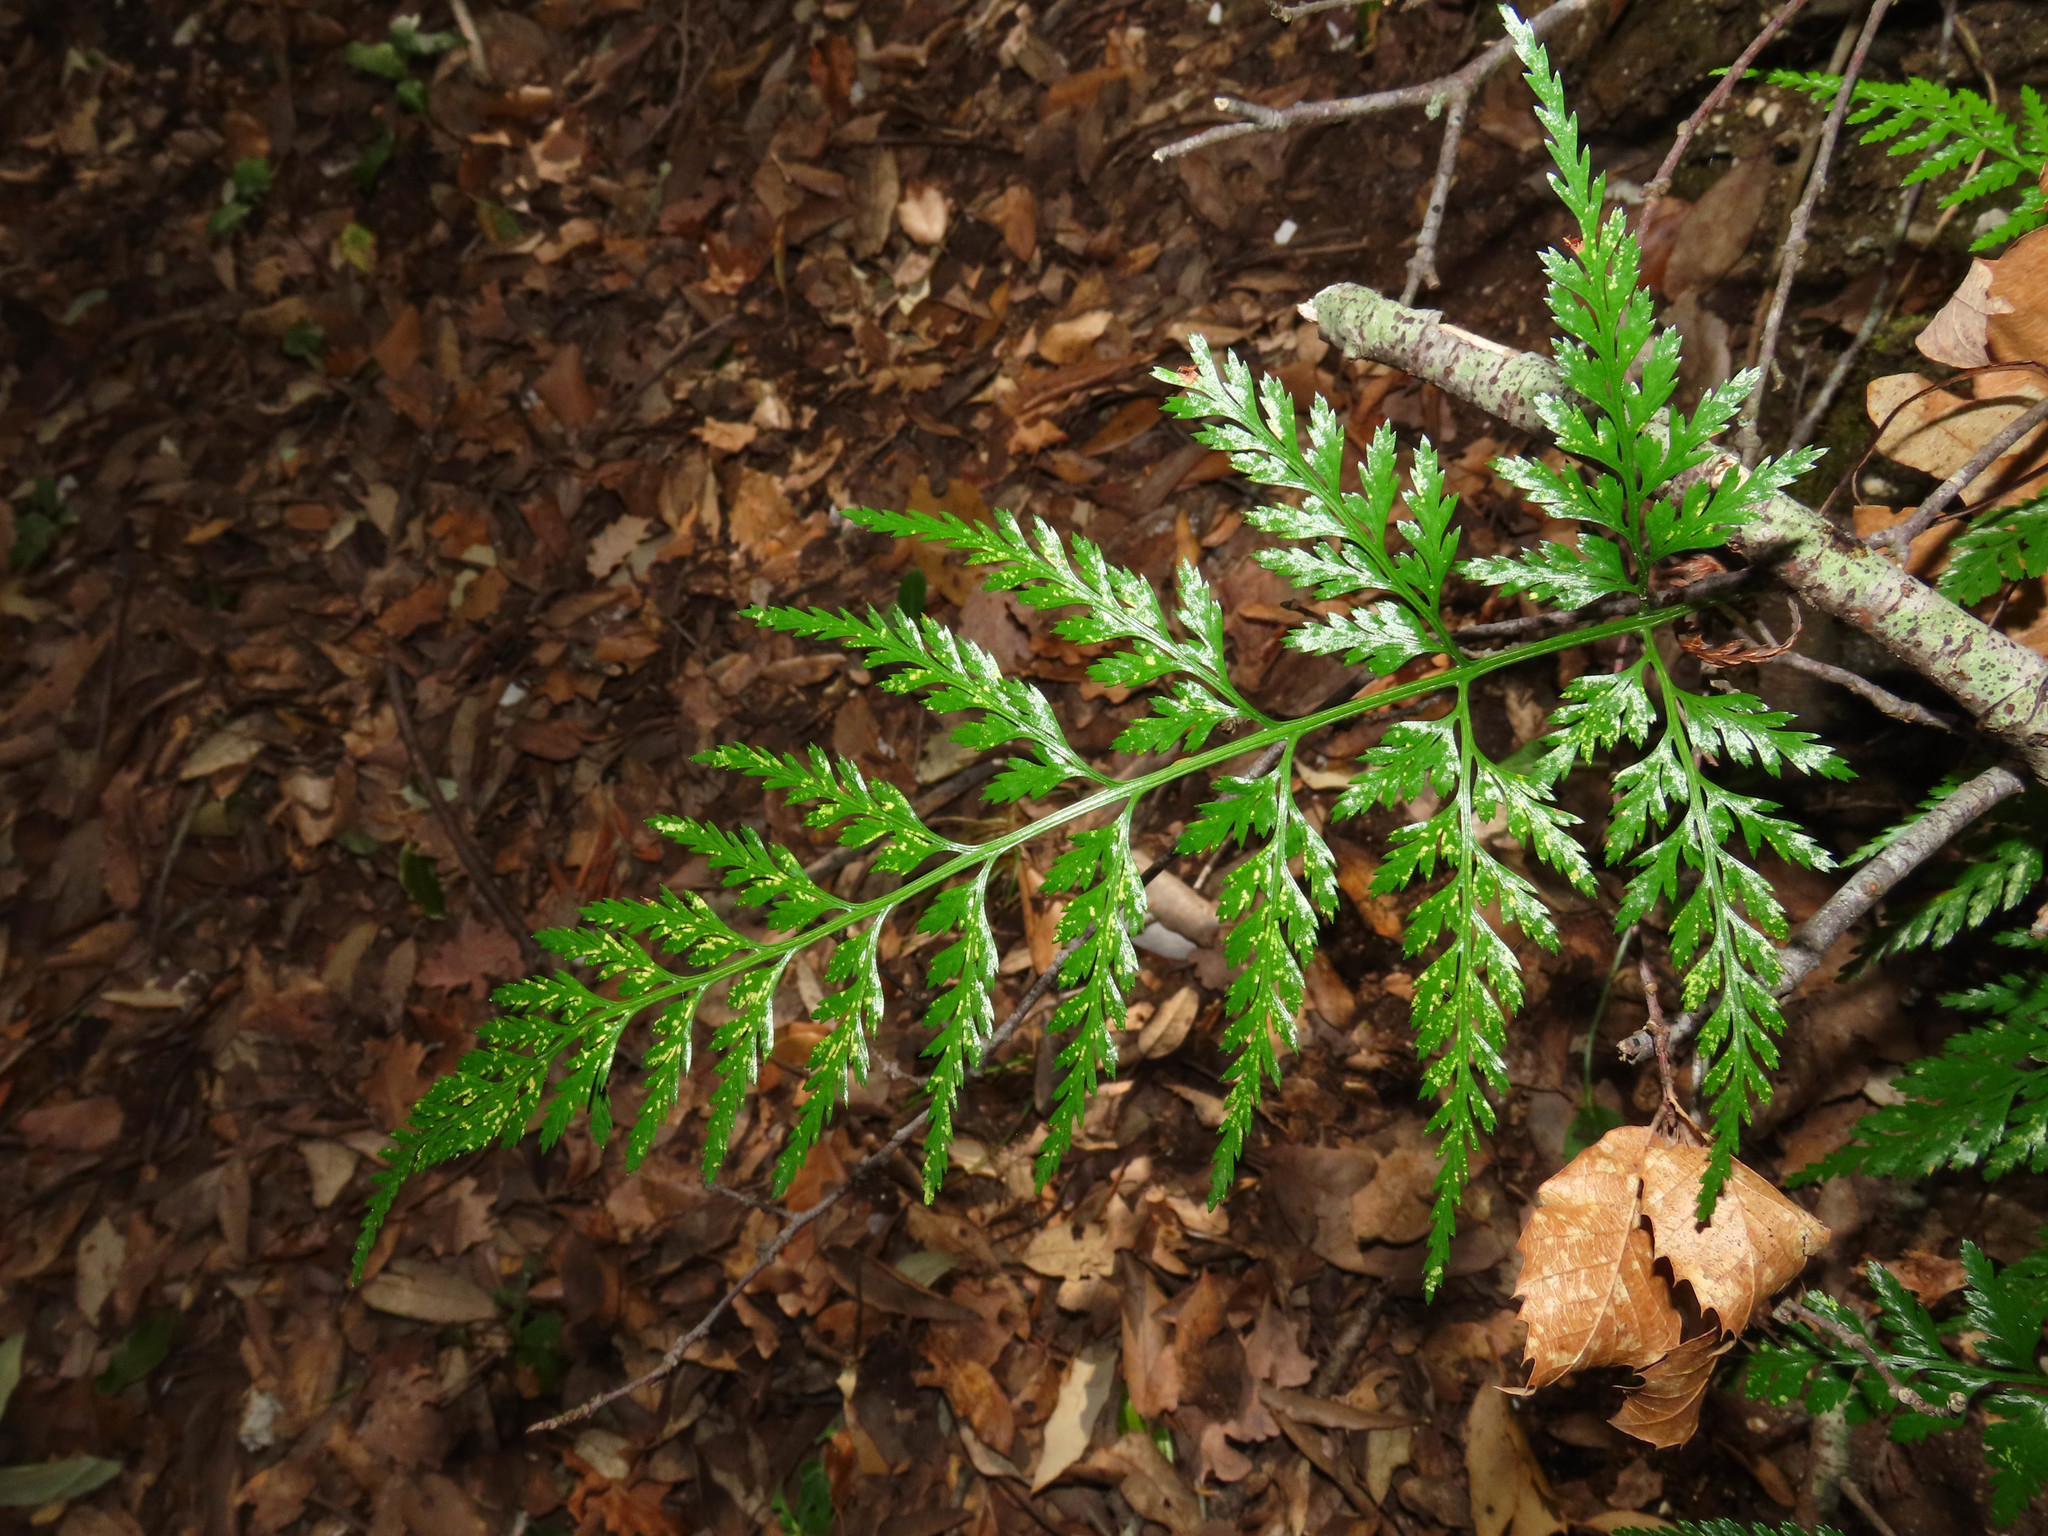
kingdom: Plantae
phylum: Tracheophyta
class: Polypodiopsida
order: Polypodiales
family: Aspleniaceae
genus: Asplenium
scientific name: Asplenium onopteris
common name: Irish spleenwort
